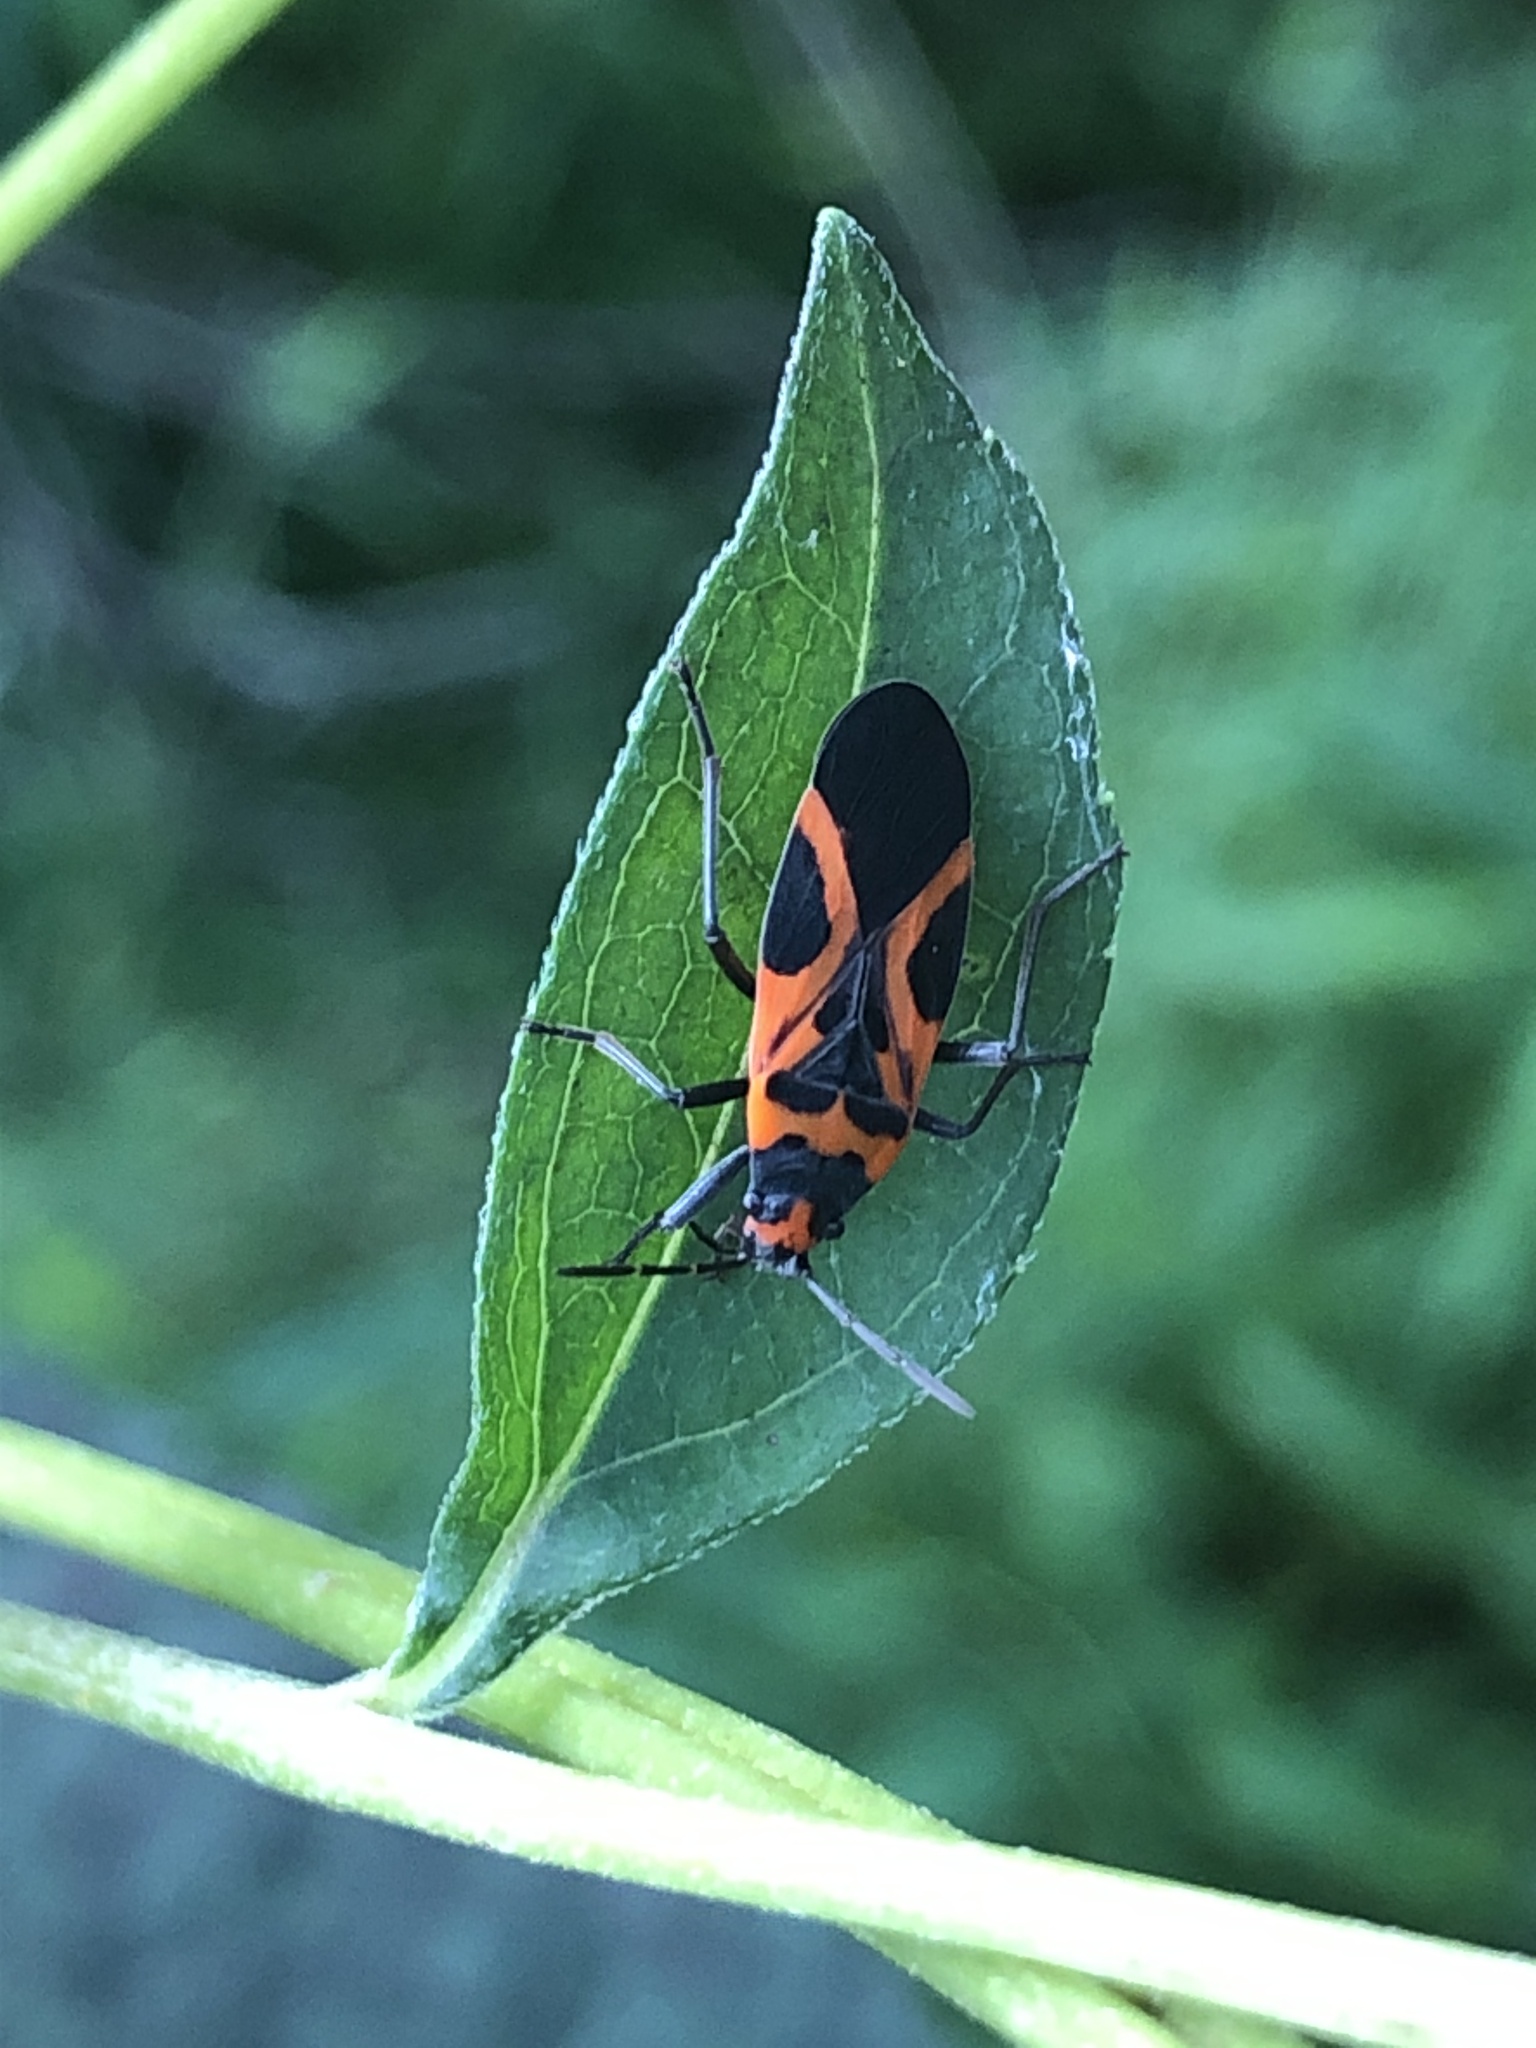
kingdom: Animalia
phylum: Arthropoda
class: Insecta
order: Hemiptera
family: Lygaeidae
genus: Lygaeus
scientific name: Lygaeus turcicus
